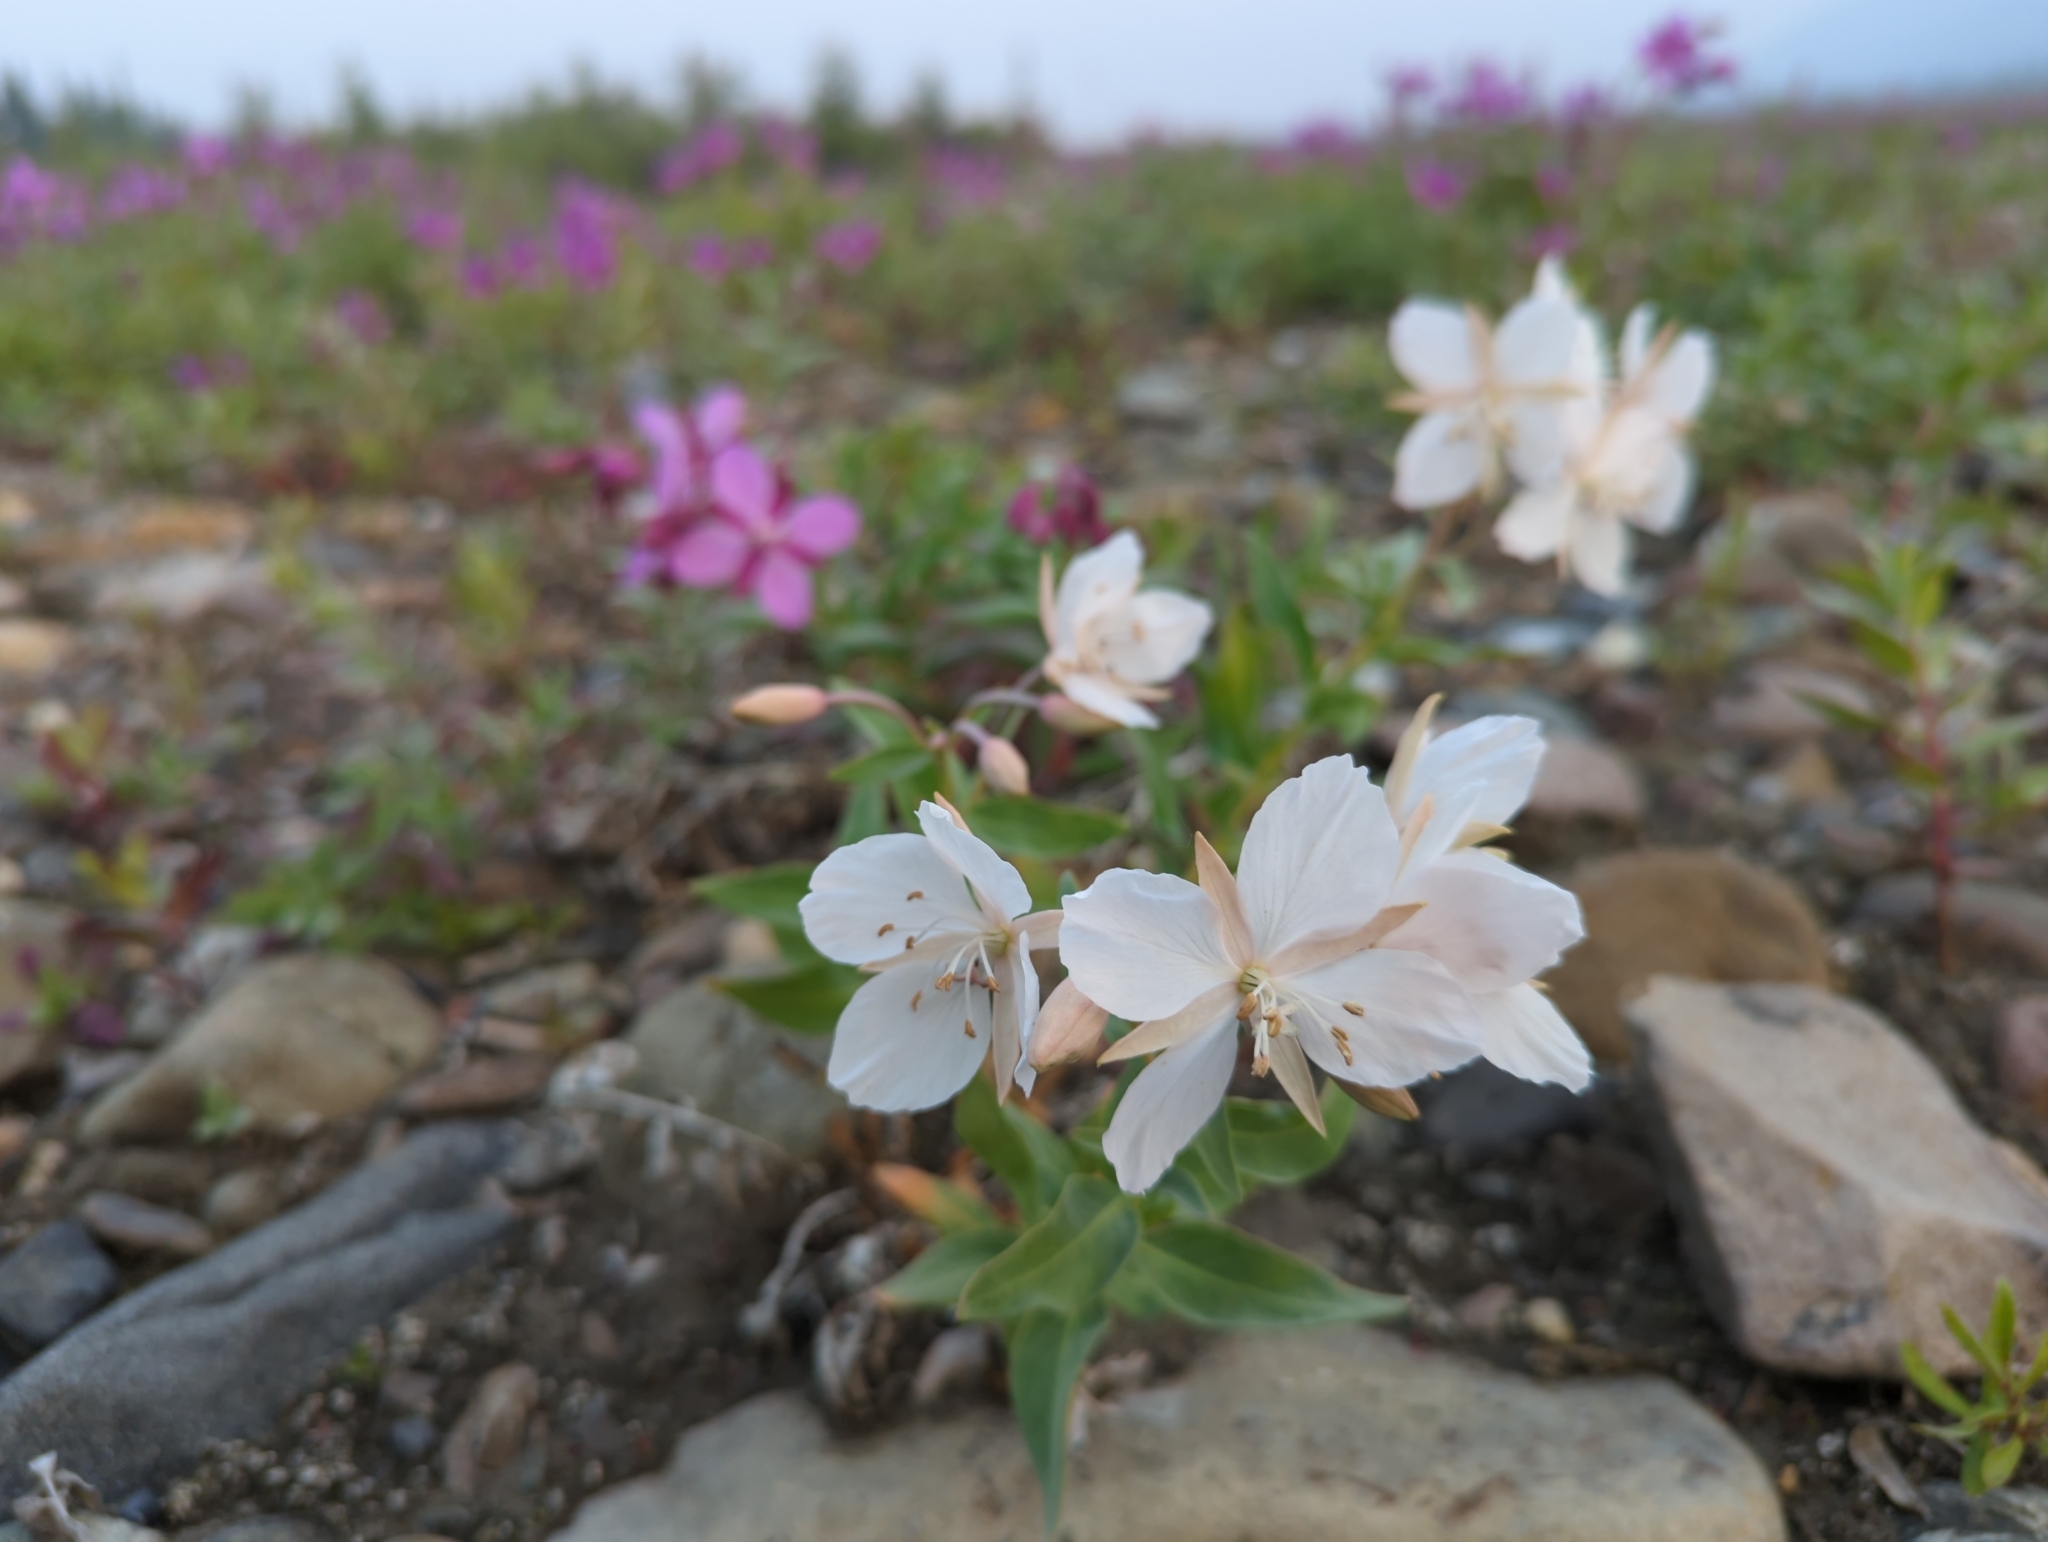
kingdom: Plantae
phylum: Tracheophyta
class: Magnoliopsida
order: Myrtales
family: Onagraceae
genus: Chamaenerion
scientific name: Chamaenerion latifolium
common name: Dwarf fireweed
